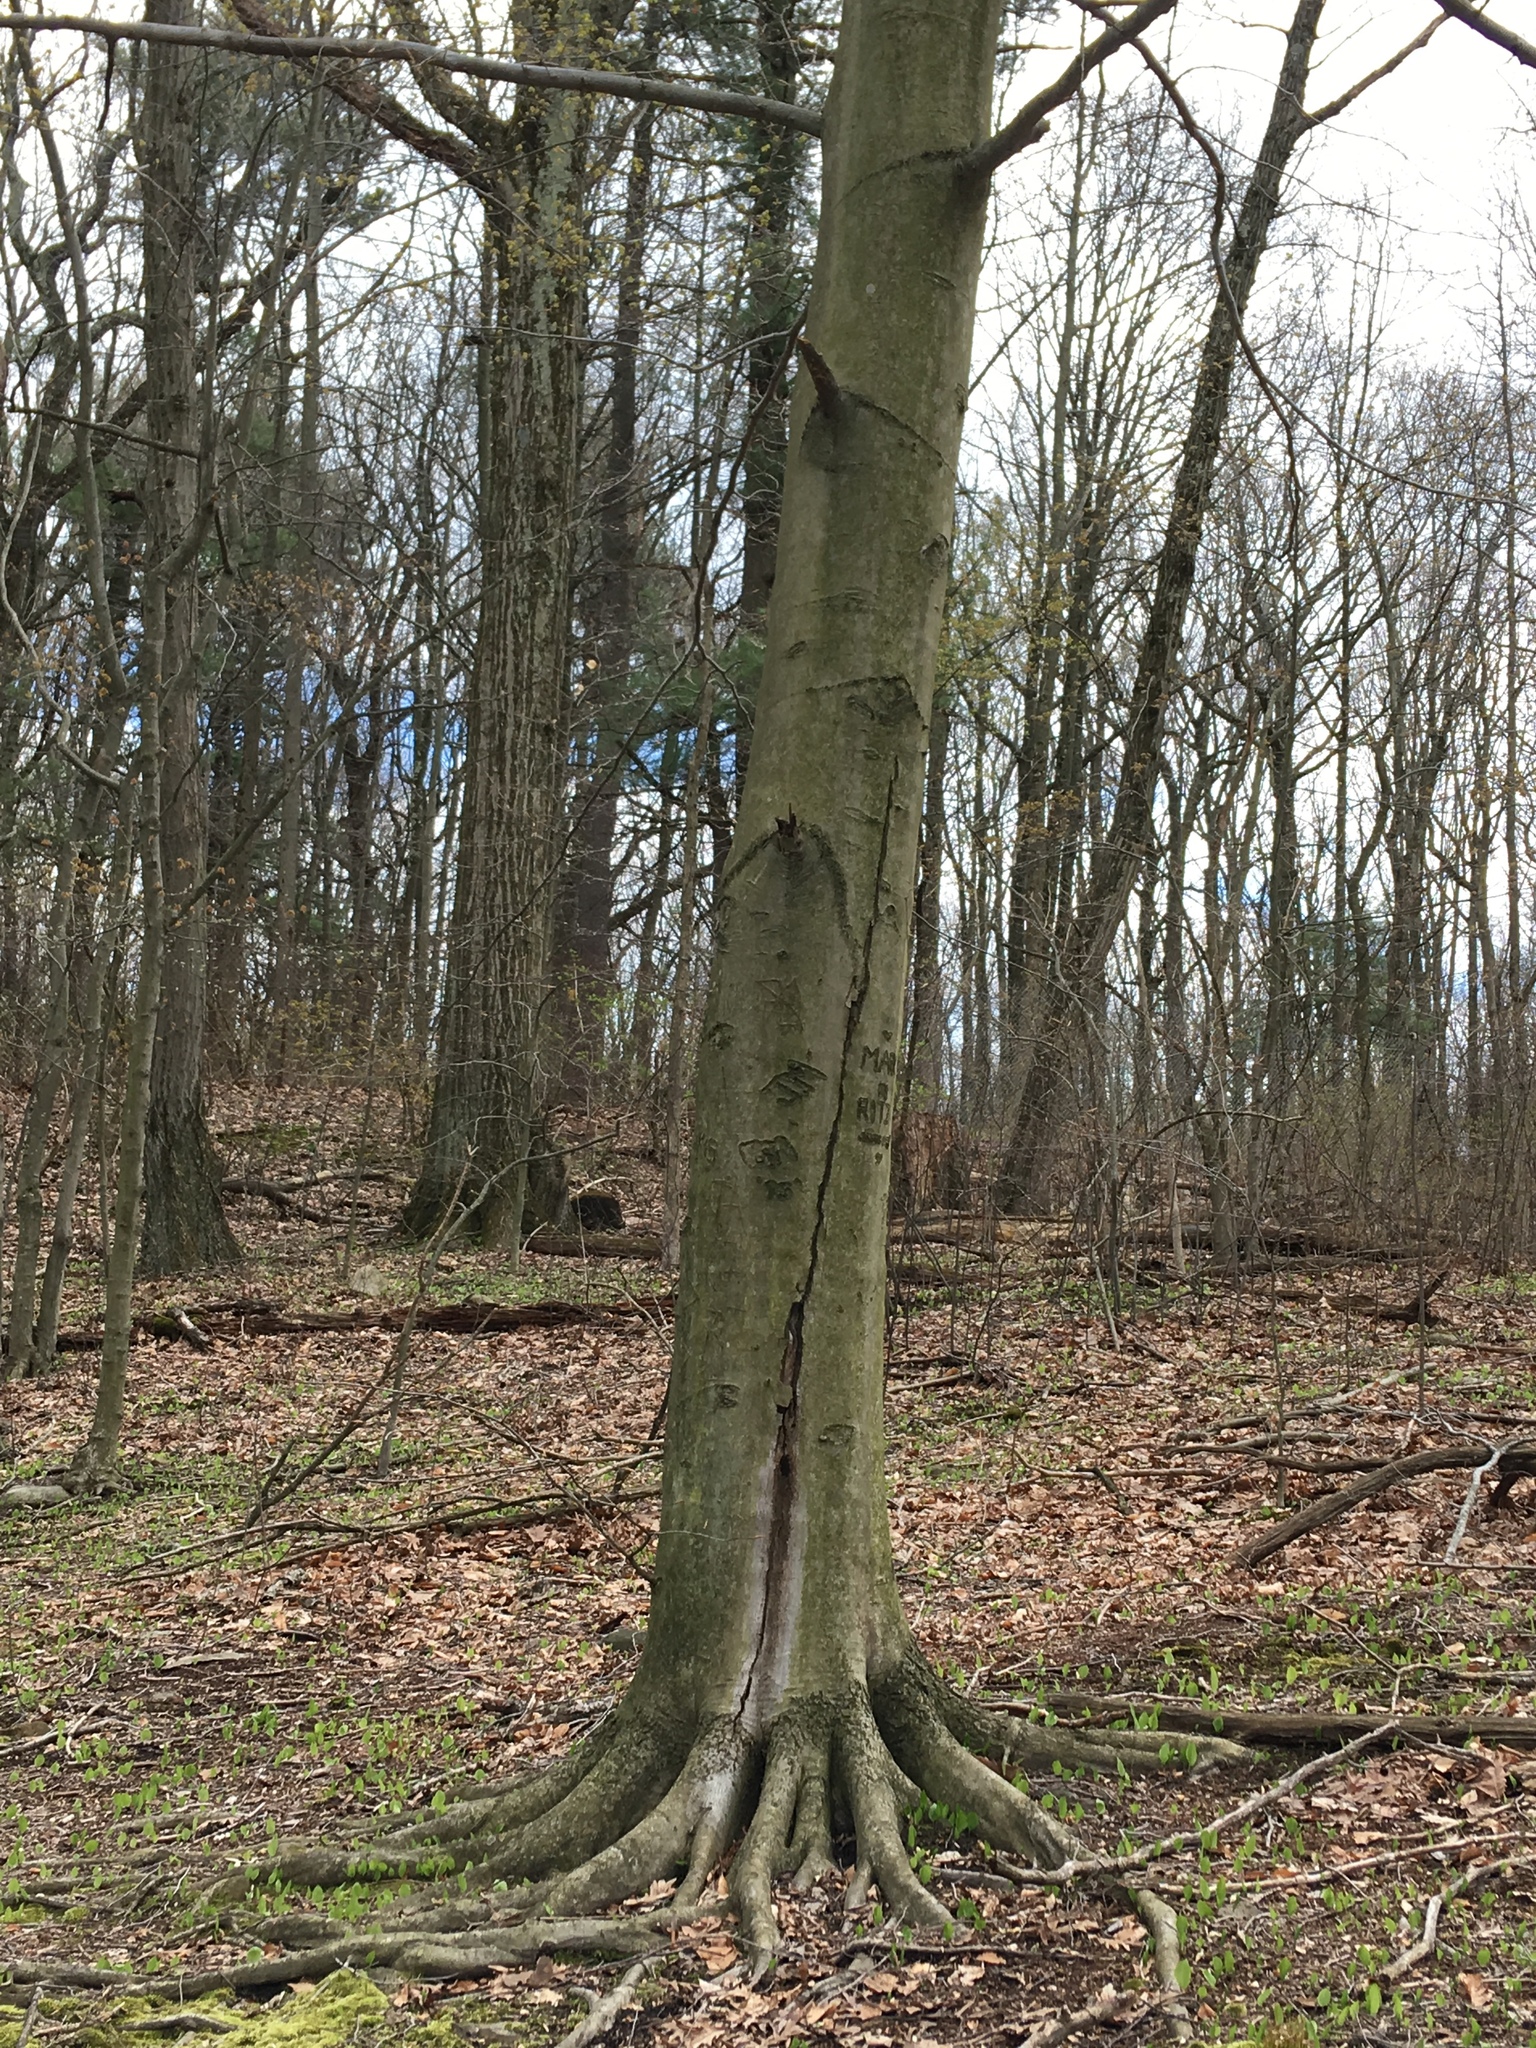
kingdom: Plantae
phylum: Tracheophyta
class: Magnoliopsida
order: Fagales
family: Fagaceae
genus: Fagus
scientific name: Fagus grandifolia
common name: American beech
